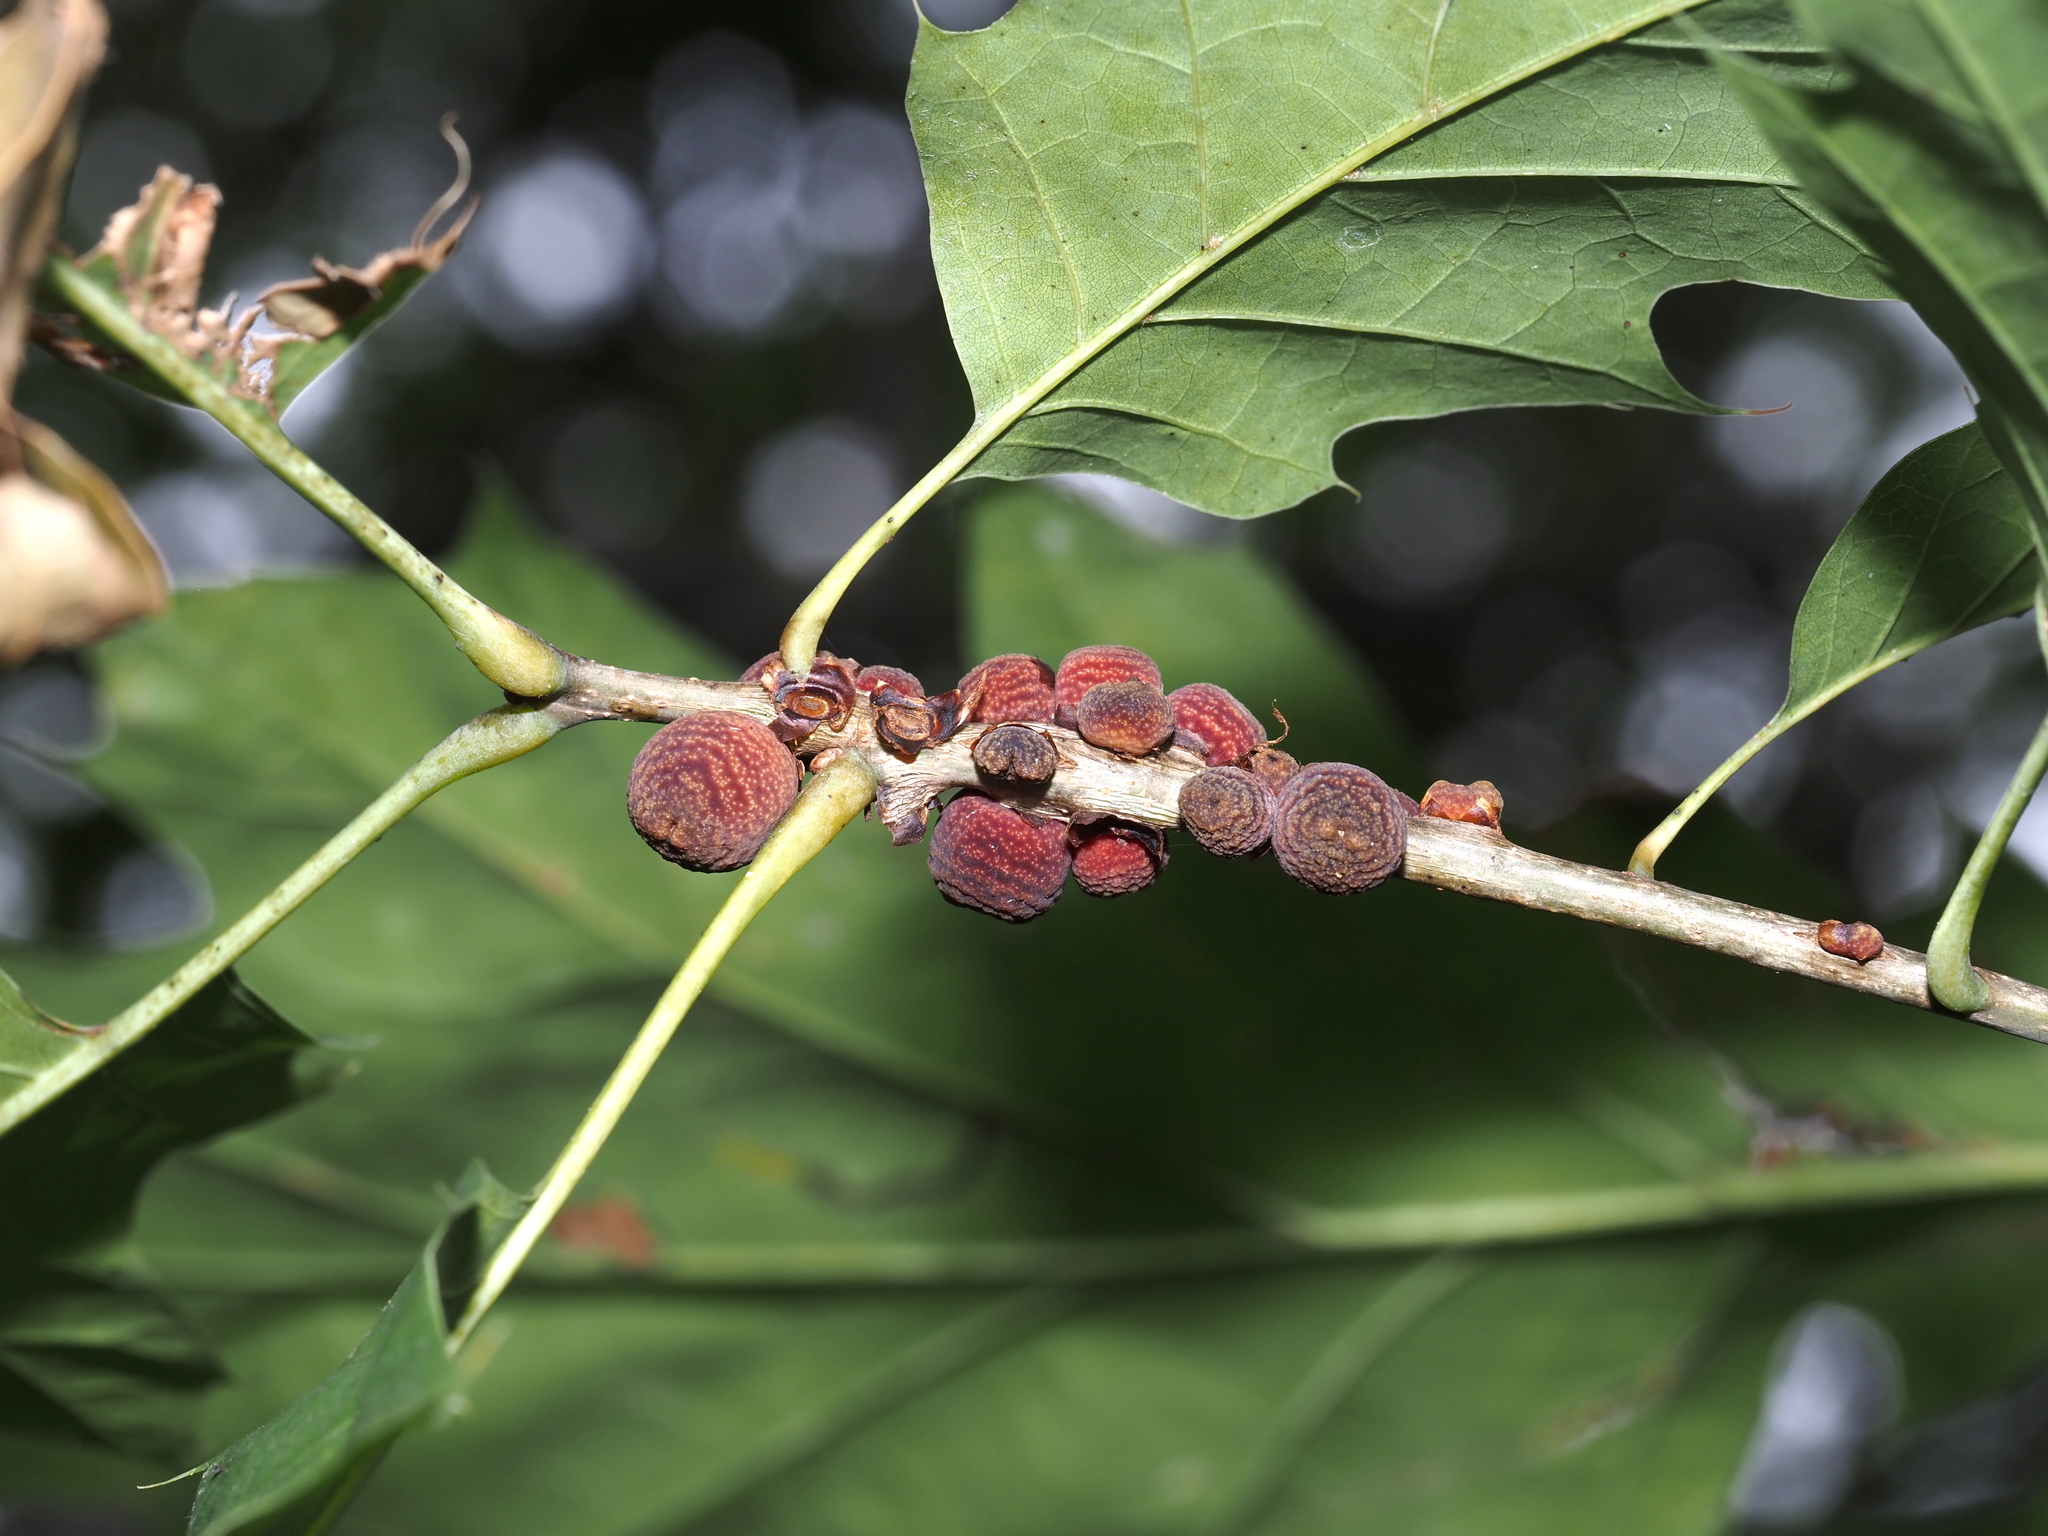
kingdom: Animalia
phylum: Arthropoda
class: Insecta
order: Hymenoptera
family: Cynipidae
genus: Kokkocynips
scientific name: Kokkocynips imbricariae
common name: Banded bullet gall wasp
